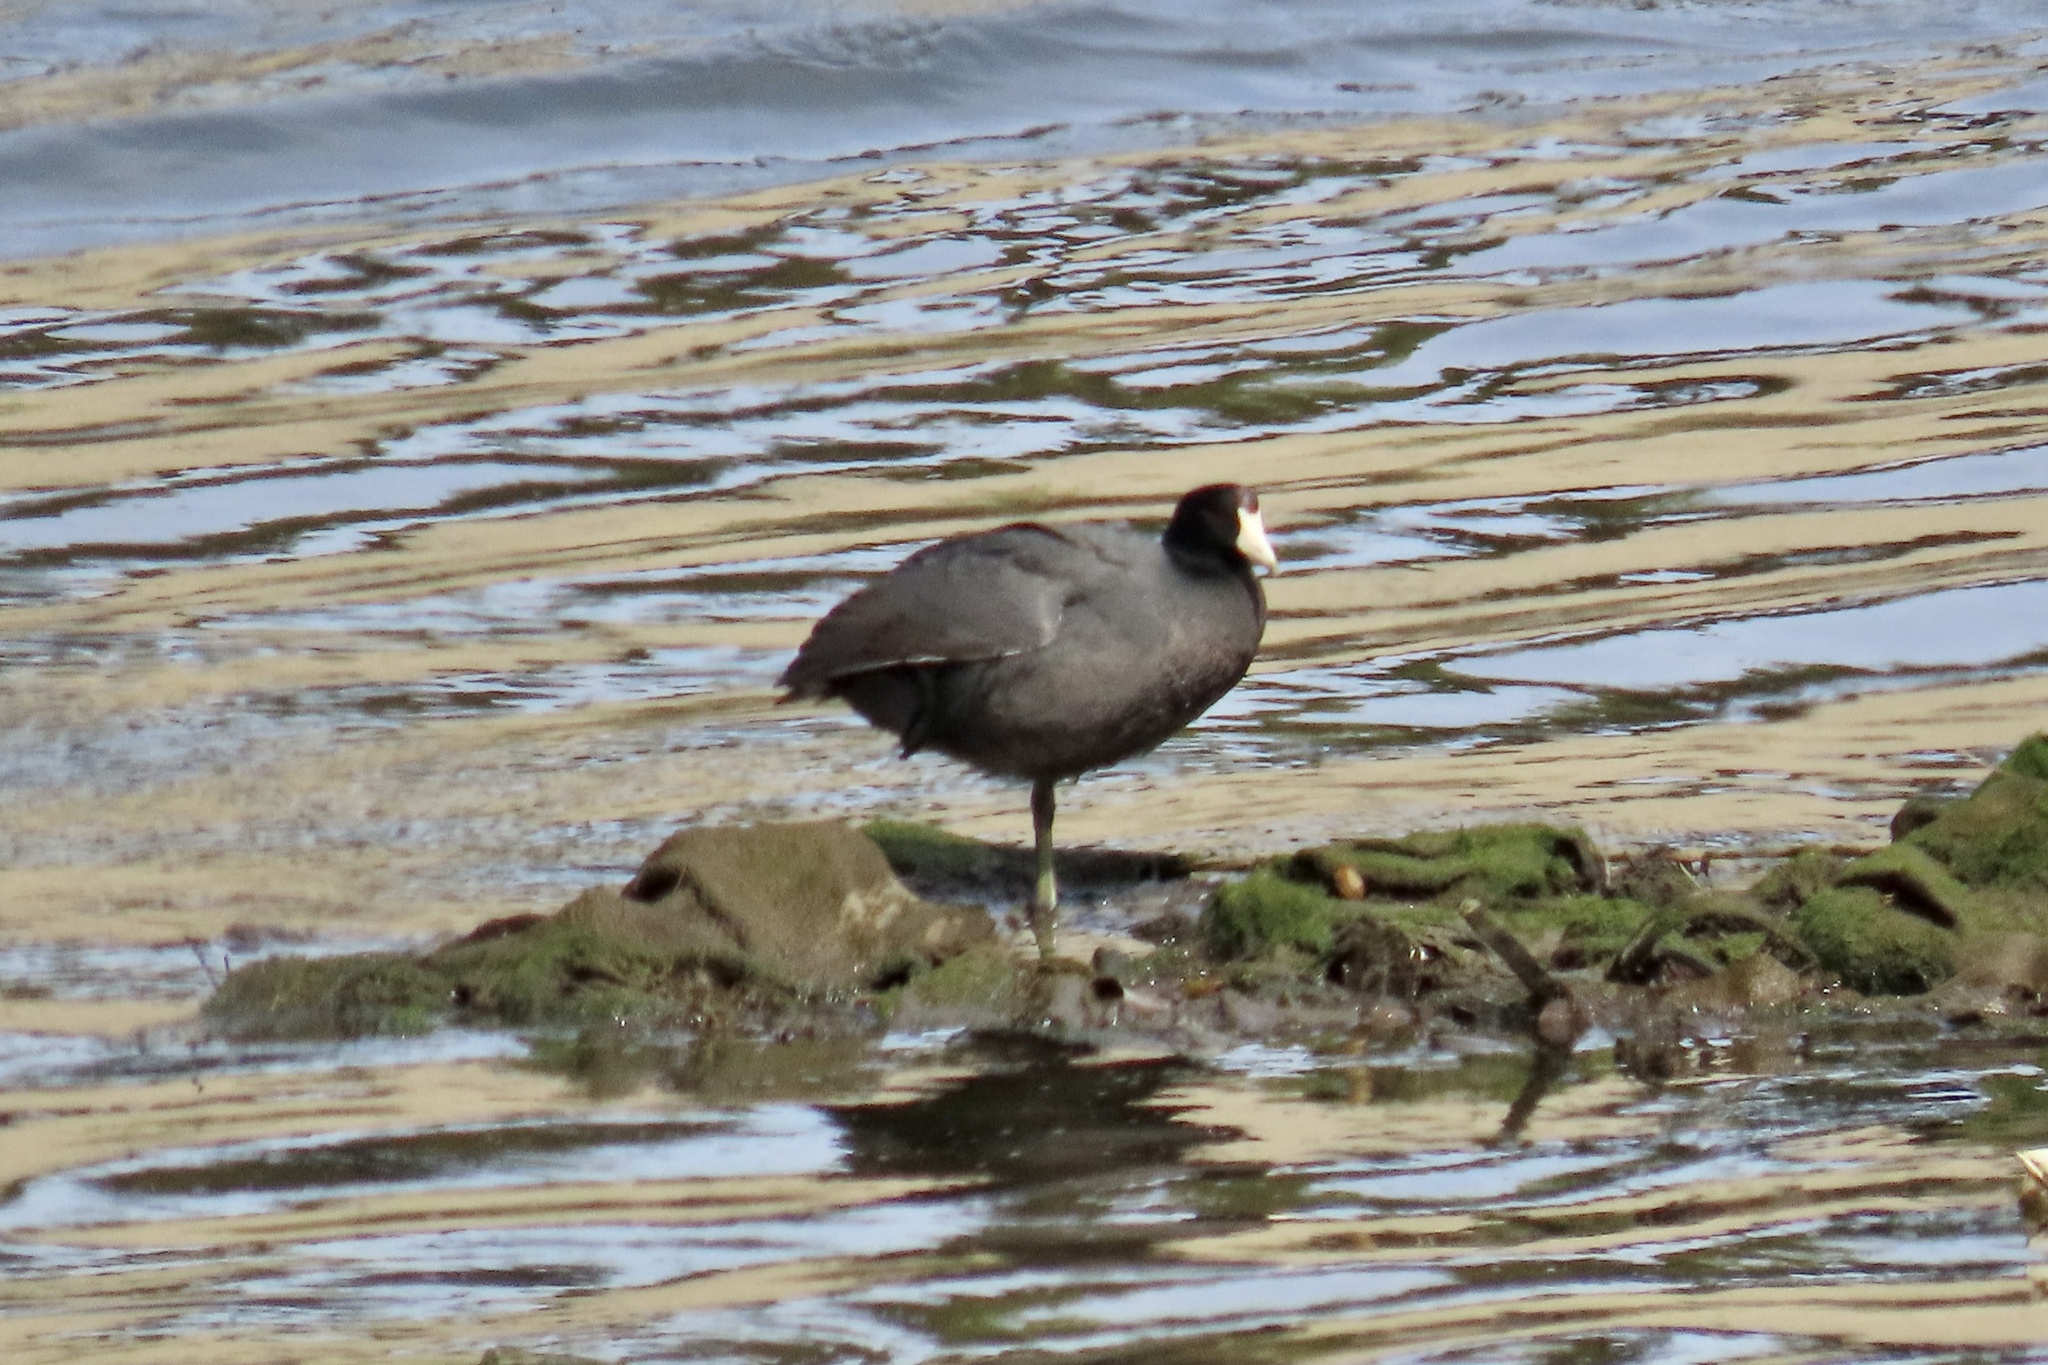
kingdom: Animalia
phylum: Chordata
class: Aves
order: Gruiformes
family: Rallidae
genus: Fulica
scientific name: Fulica americana
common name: American coot
